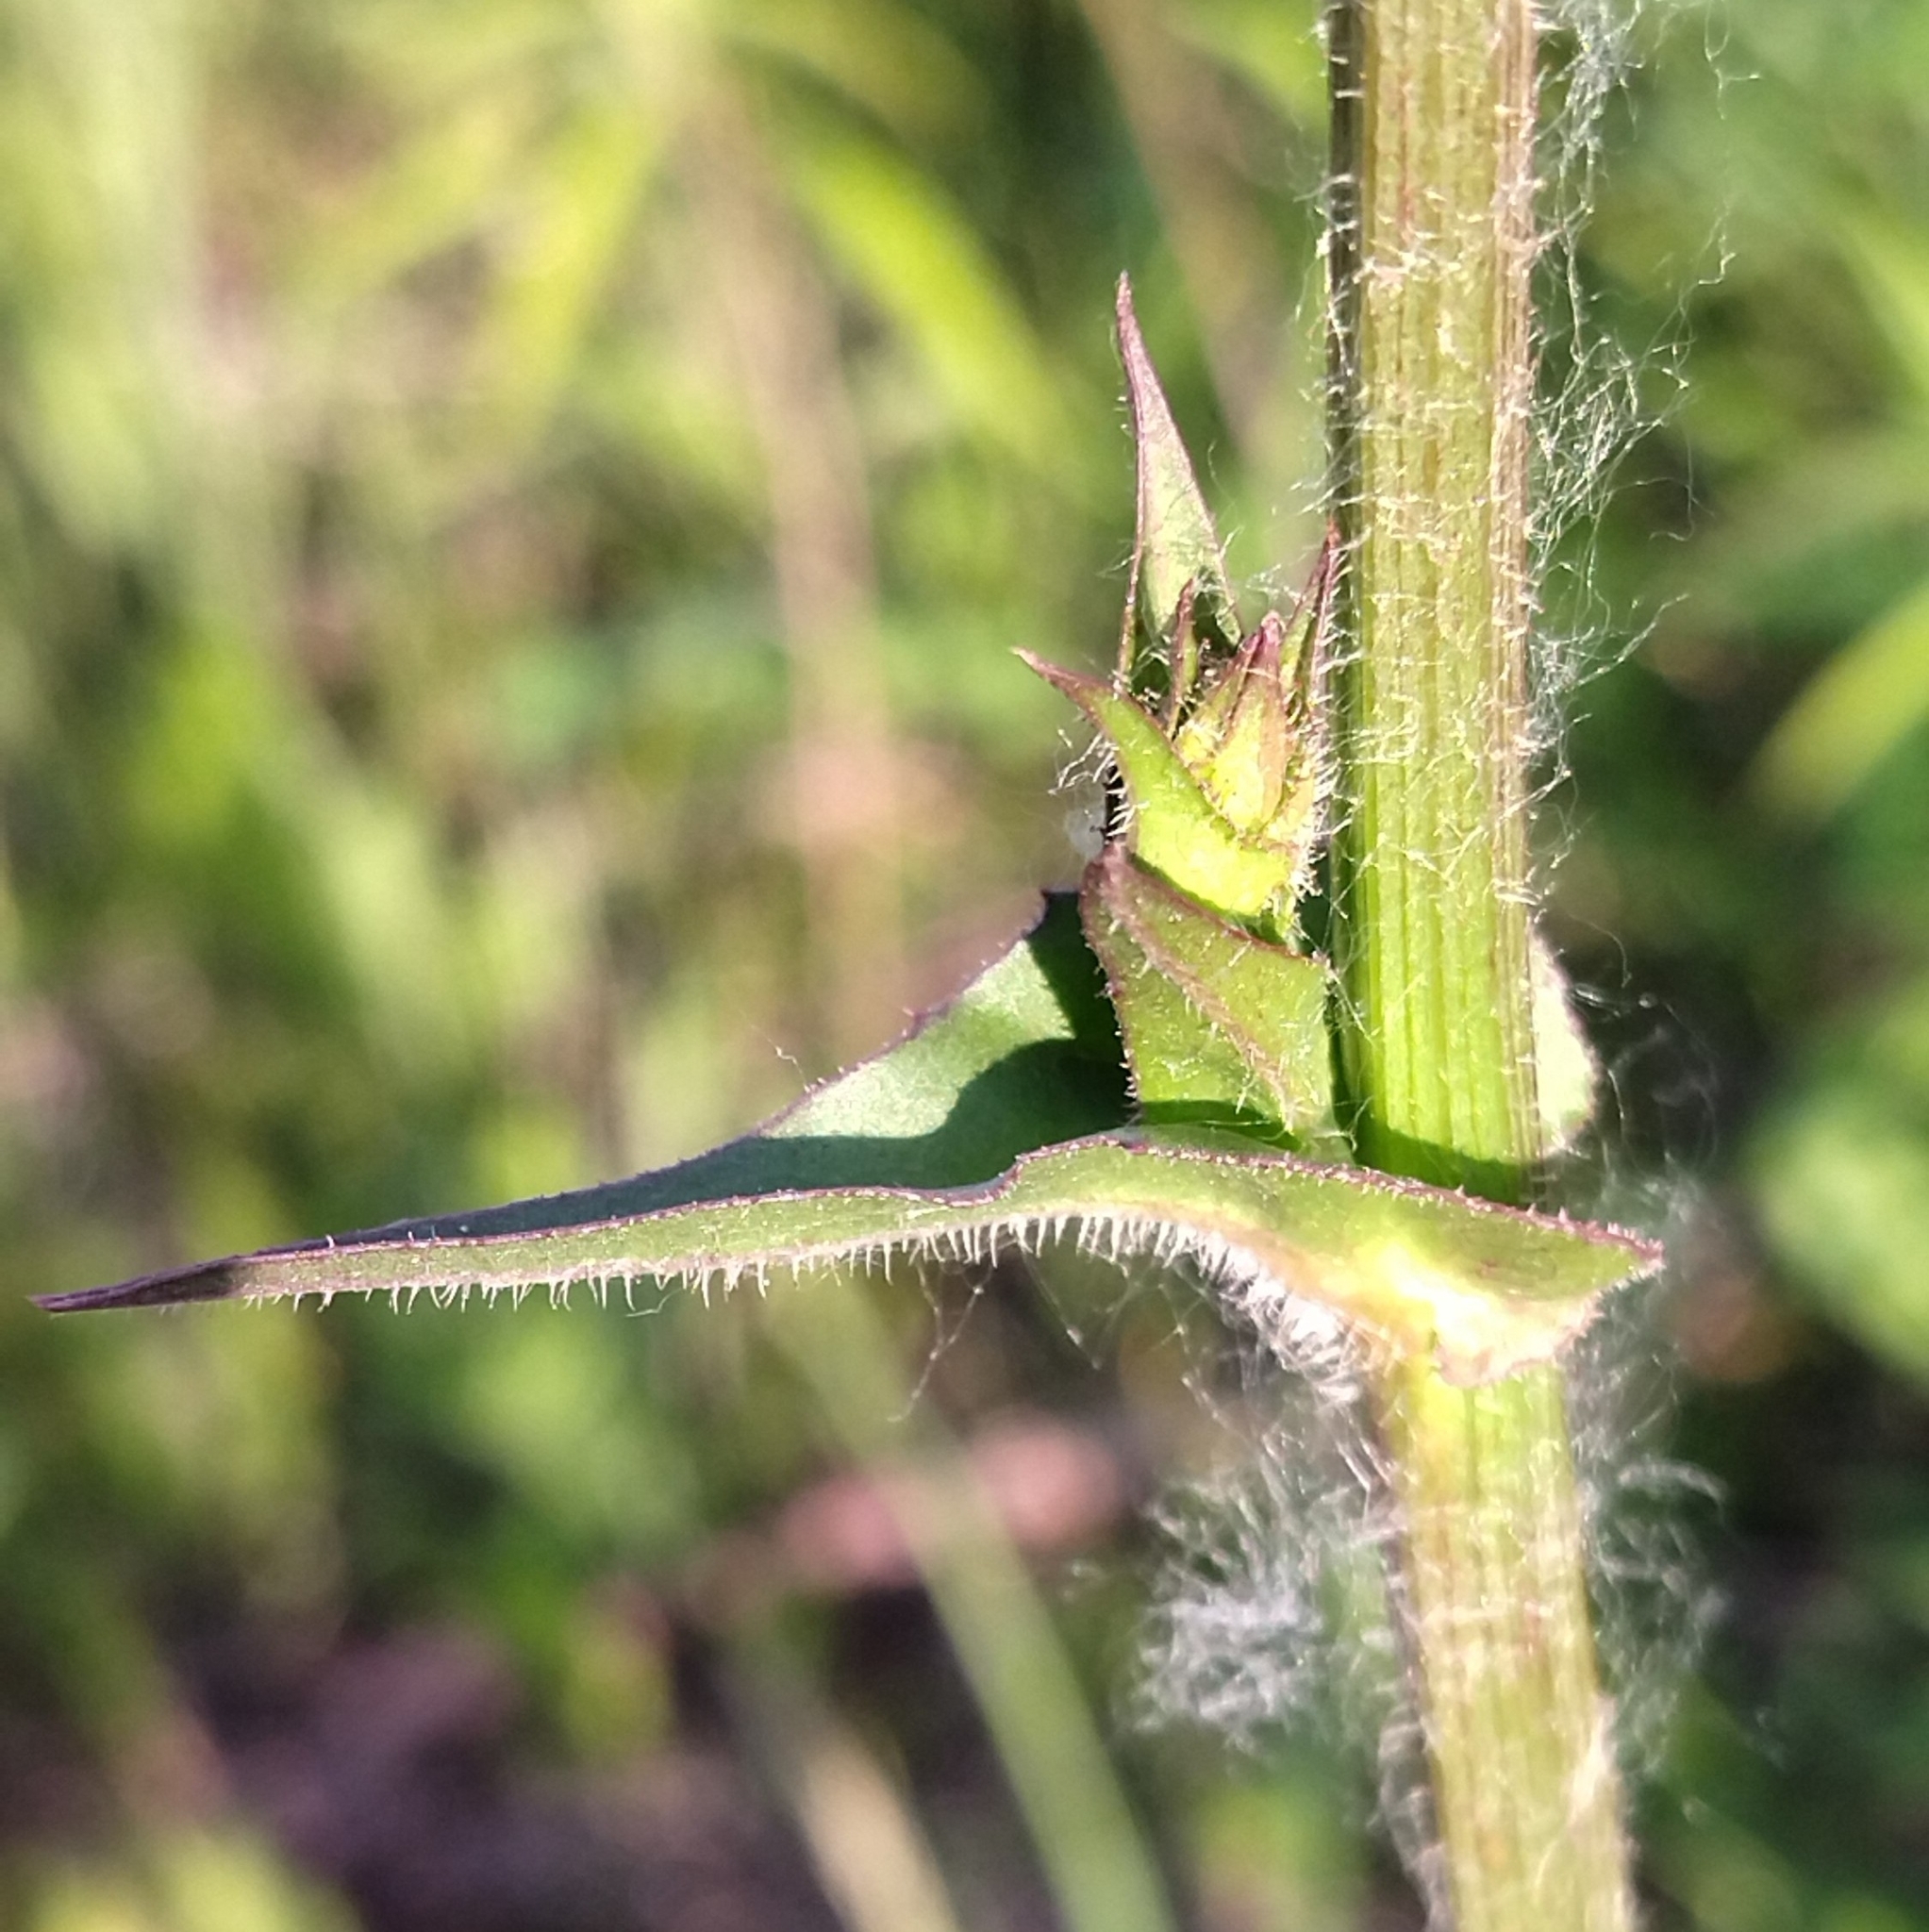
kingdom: Plantae
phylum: Tracheophyta
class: Magnoliopsida
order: Asterales
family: Asteraceae
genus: Cichorium
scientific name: Cichorium intybus
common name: Chicory
